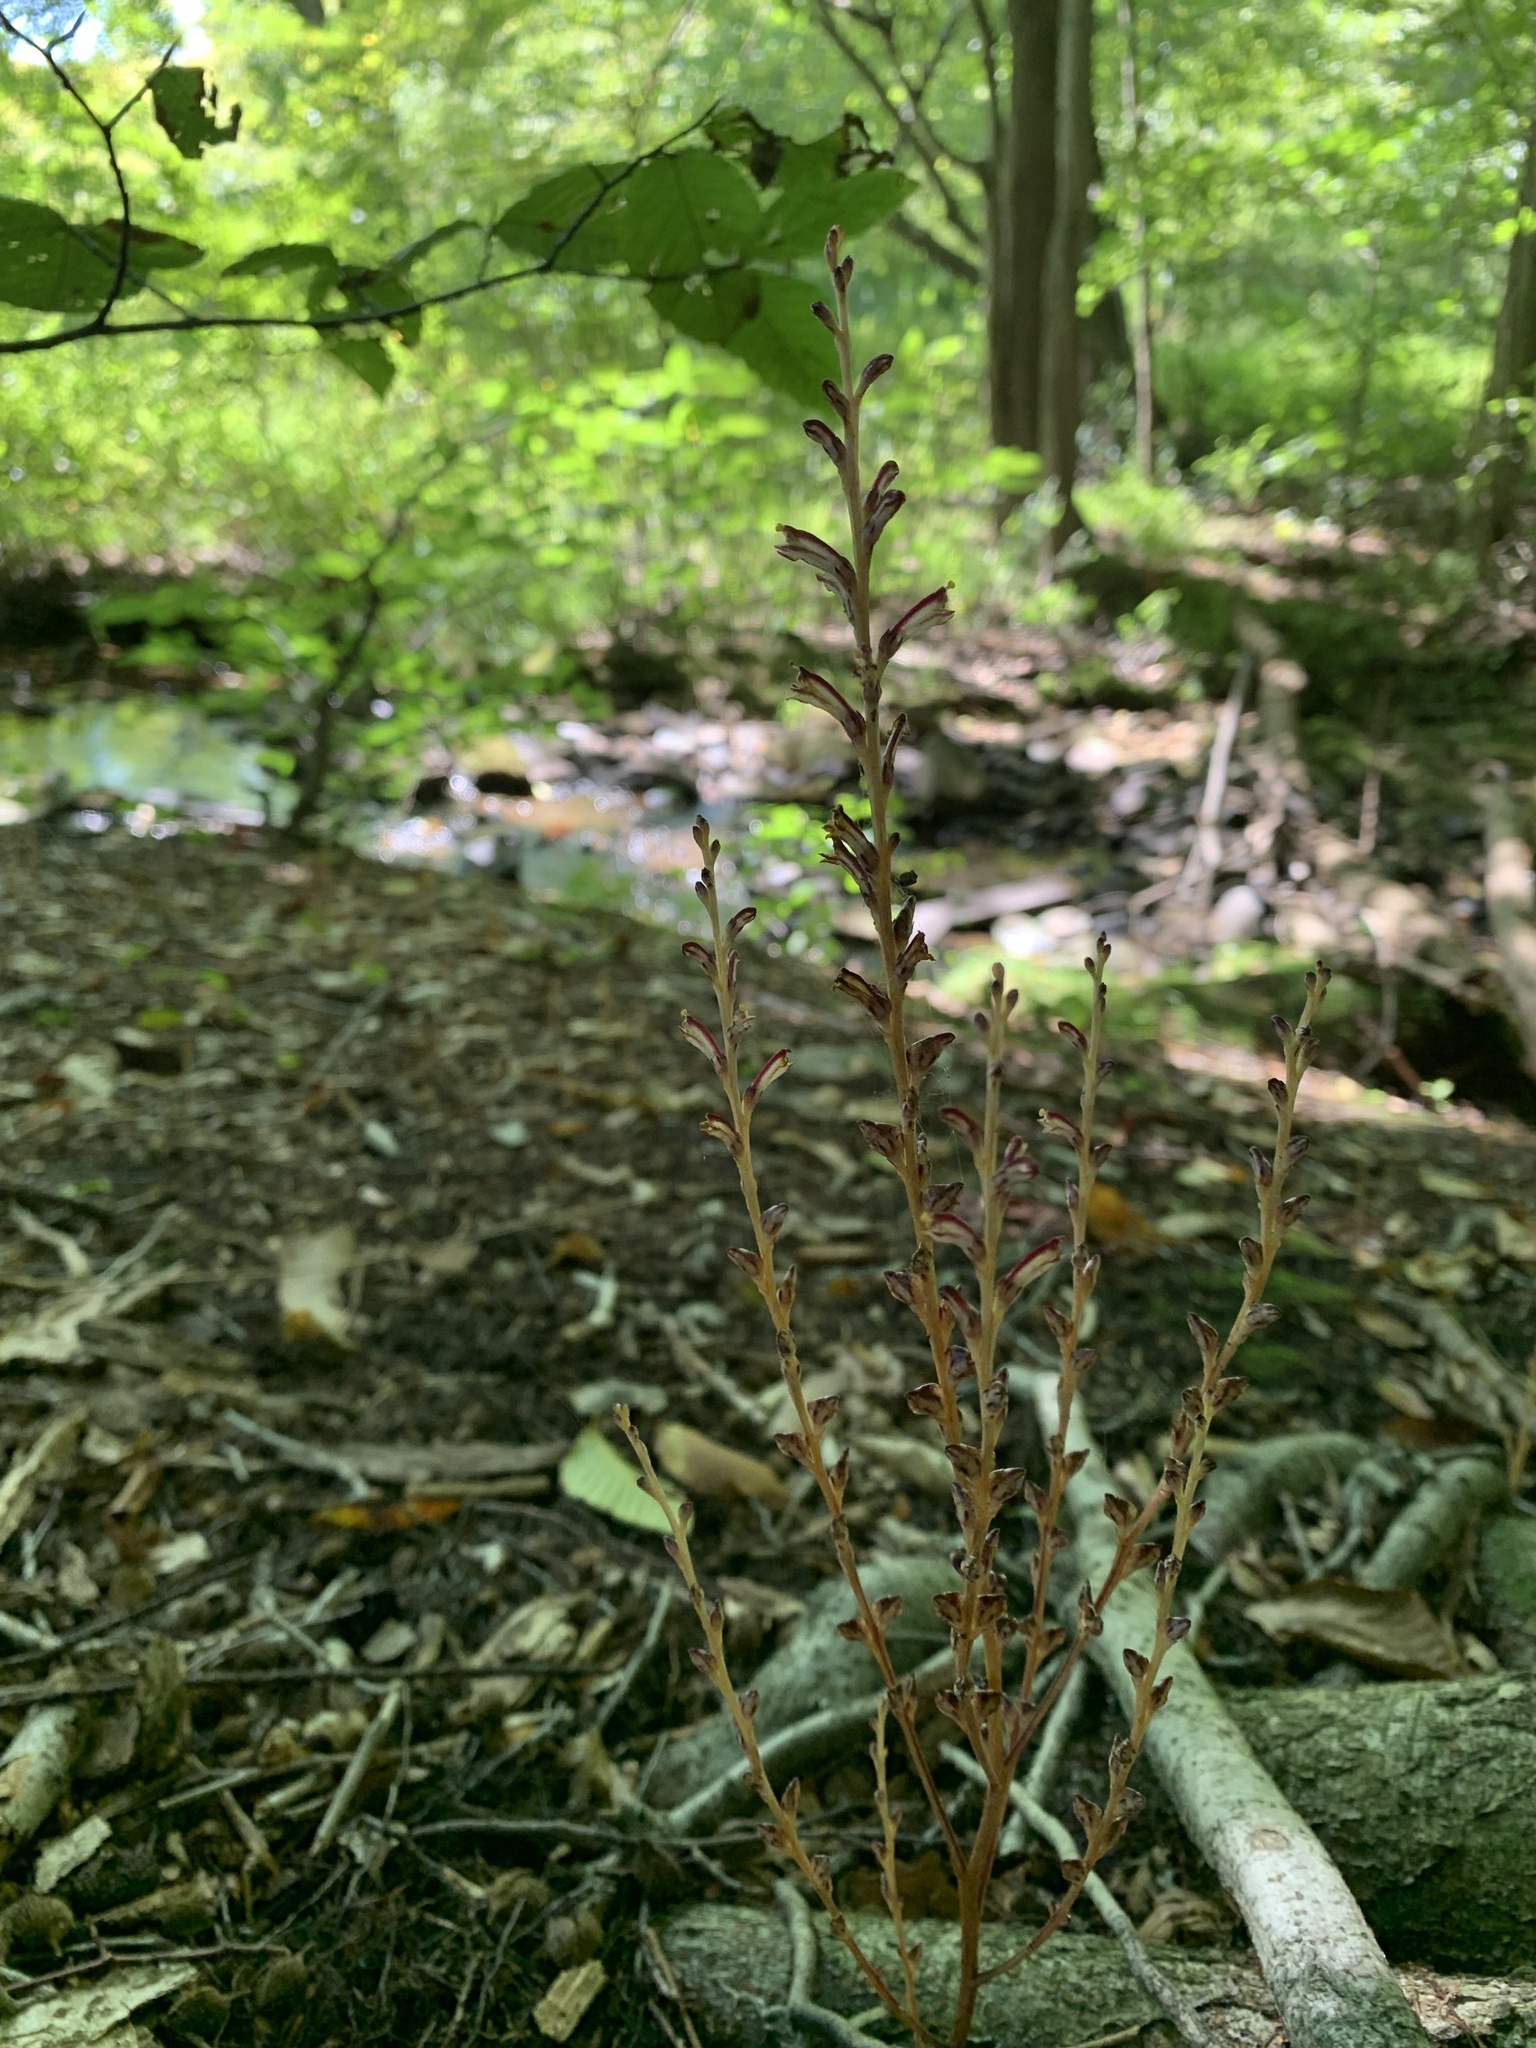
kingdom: Plantae
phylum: Tracheophyta
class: Magnoliopsida
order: Lamiales
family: Orobanchaceae
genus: Epifagus
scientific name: Epifagus virginiana
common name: Beechdrops
